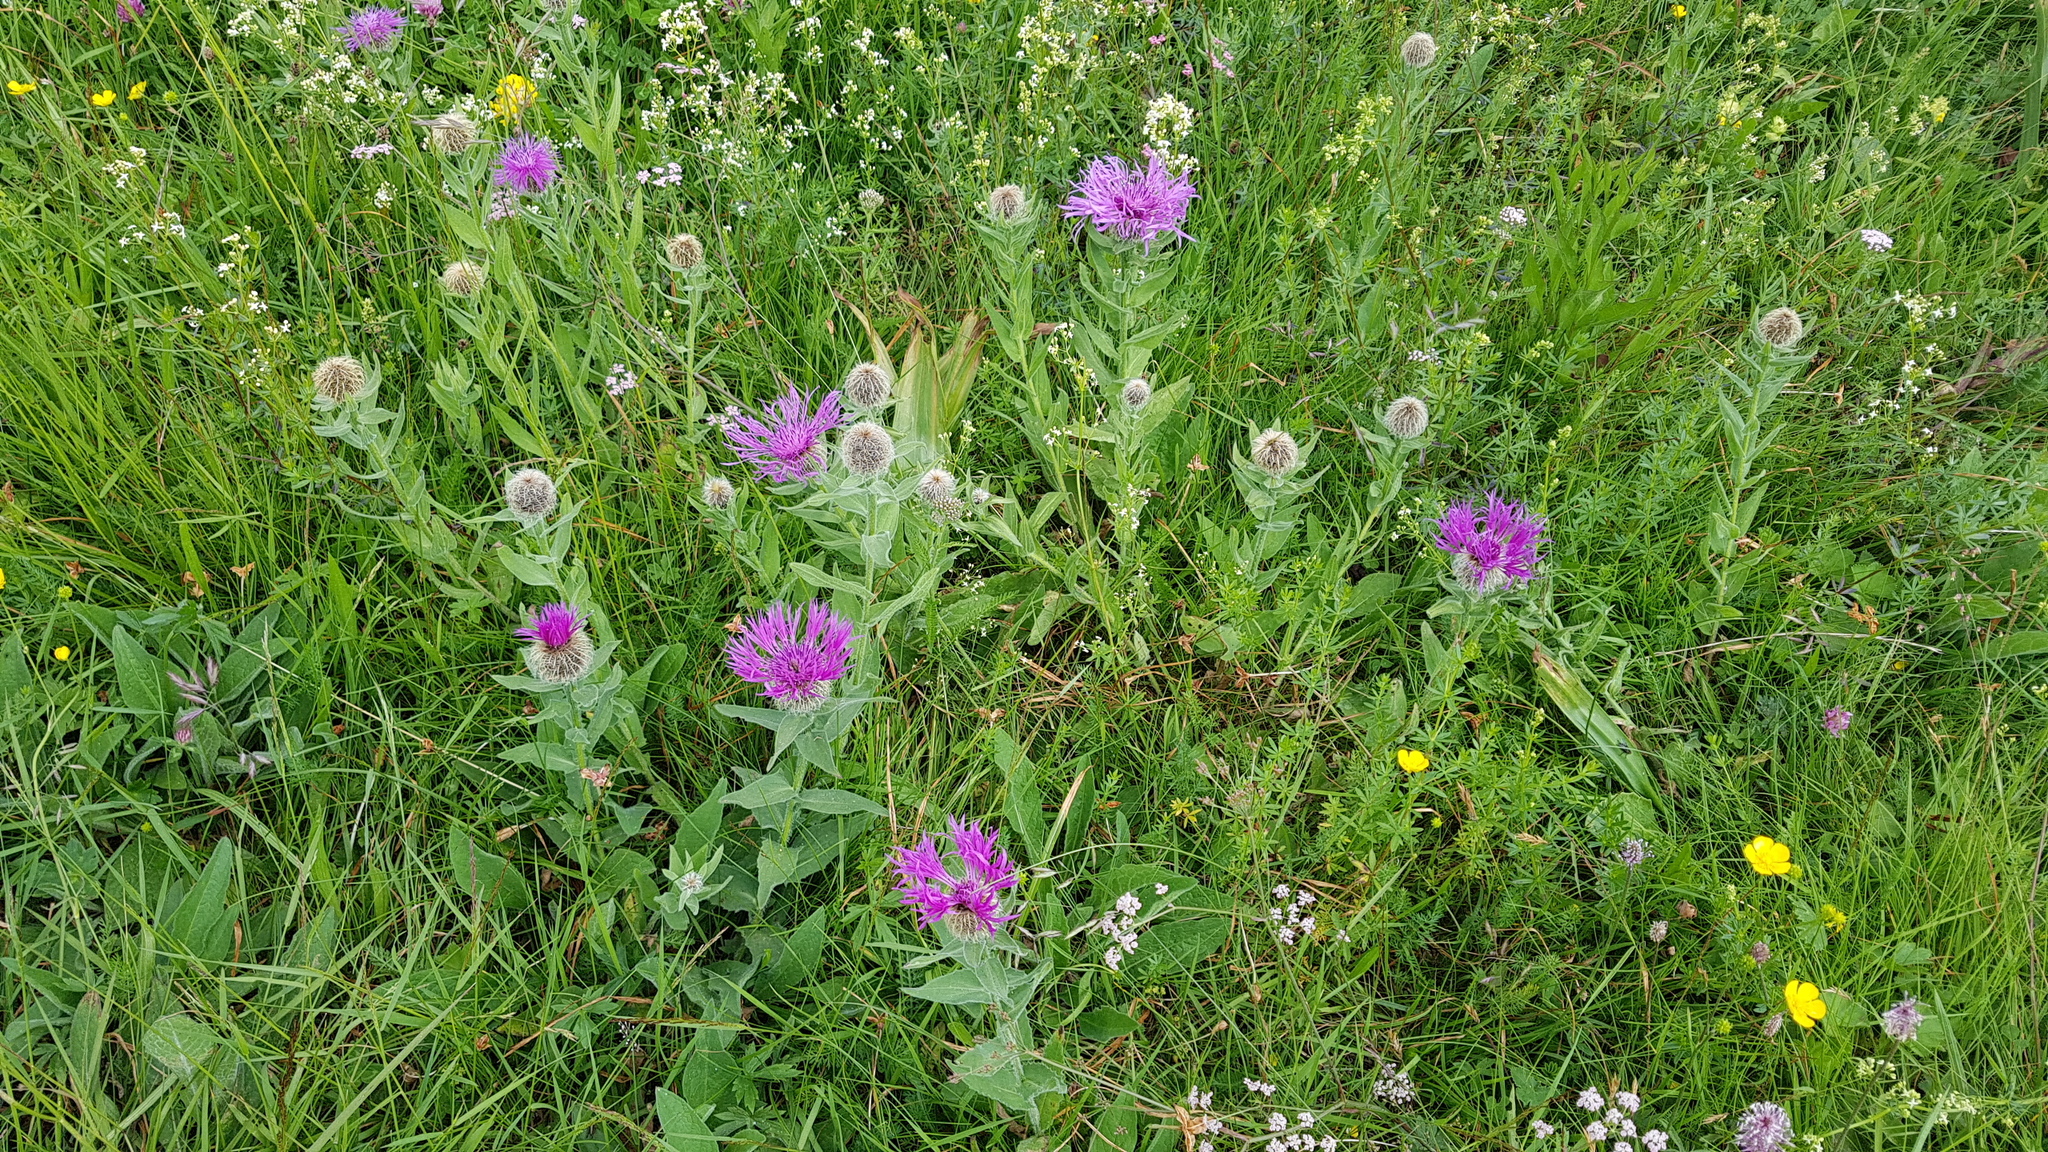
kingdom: Plantae
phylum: Tracheophyta
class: Magnoliopsida
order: Asterales
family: Asteraceae
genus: Centaurea
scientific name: Centaurea nervosa
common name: Singleflower knapweed
